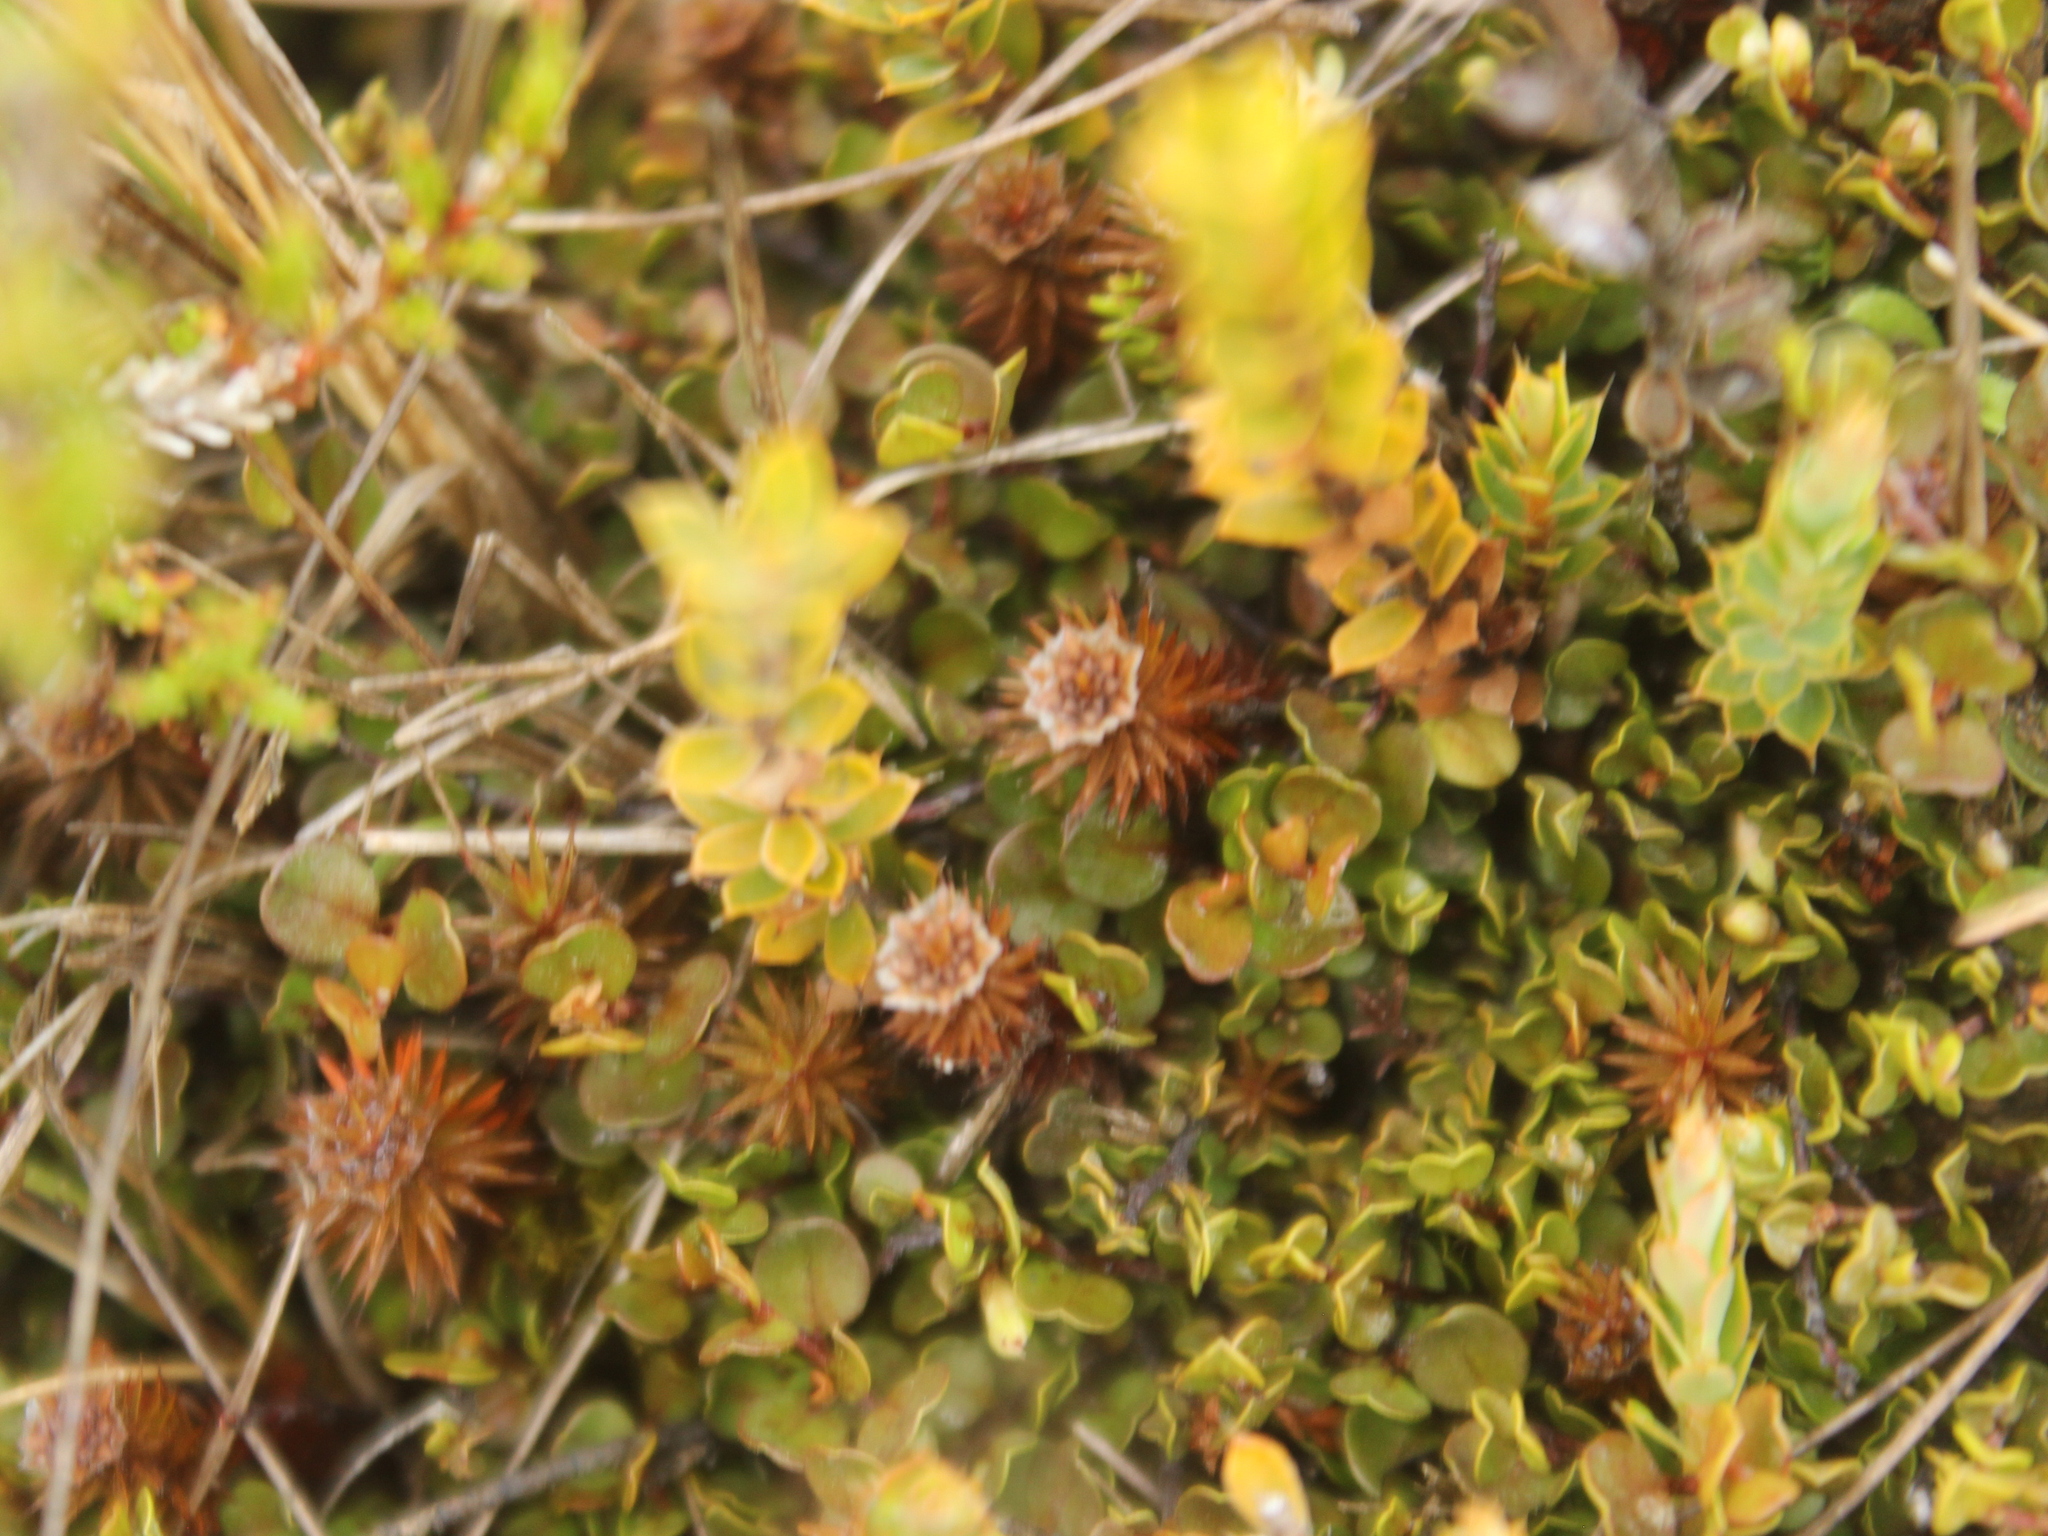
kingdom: Plantae
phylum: Bryophyta
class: Polytrichopsida
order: Polytrichales
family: Polytrichaceae
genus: Polytrichum
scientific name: Polytrichum juniperinum
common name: Juniper haircap moss
